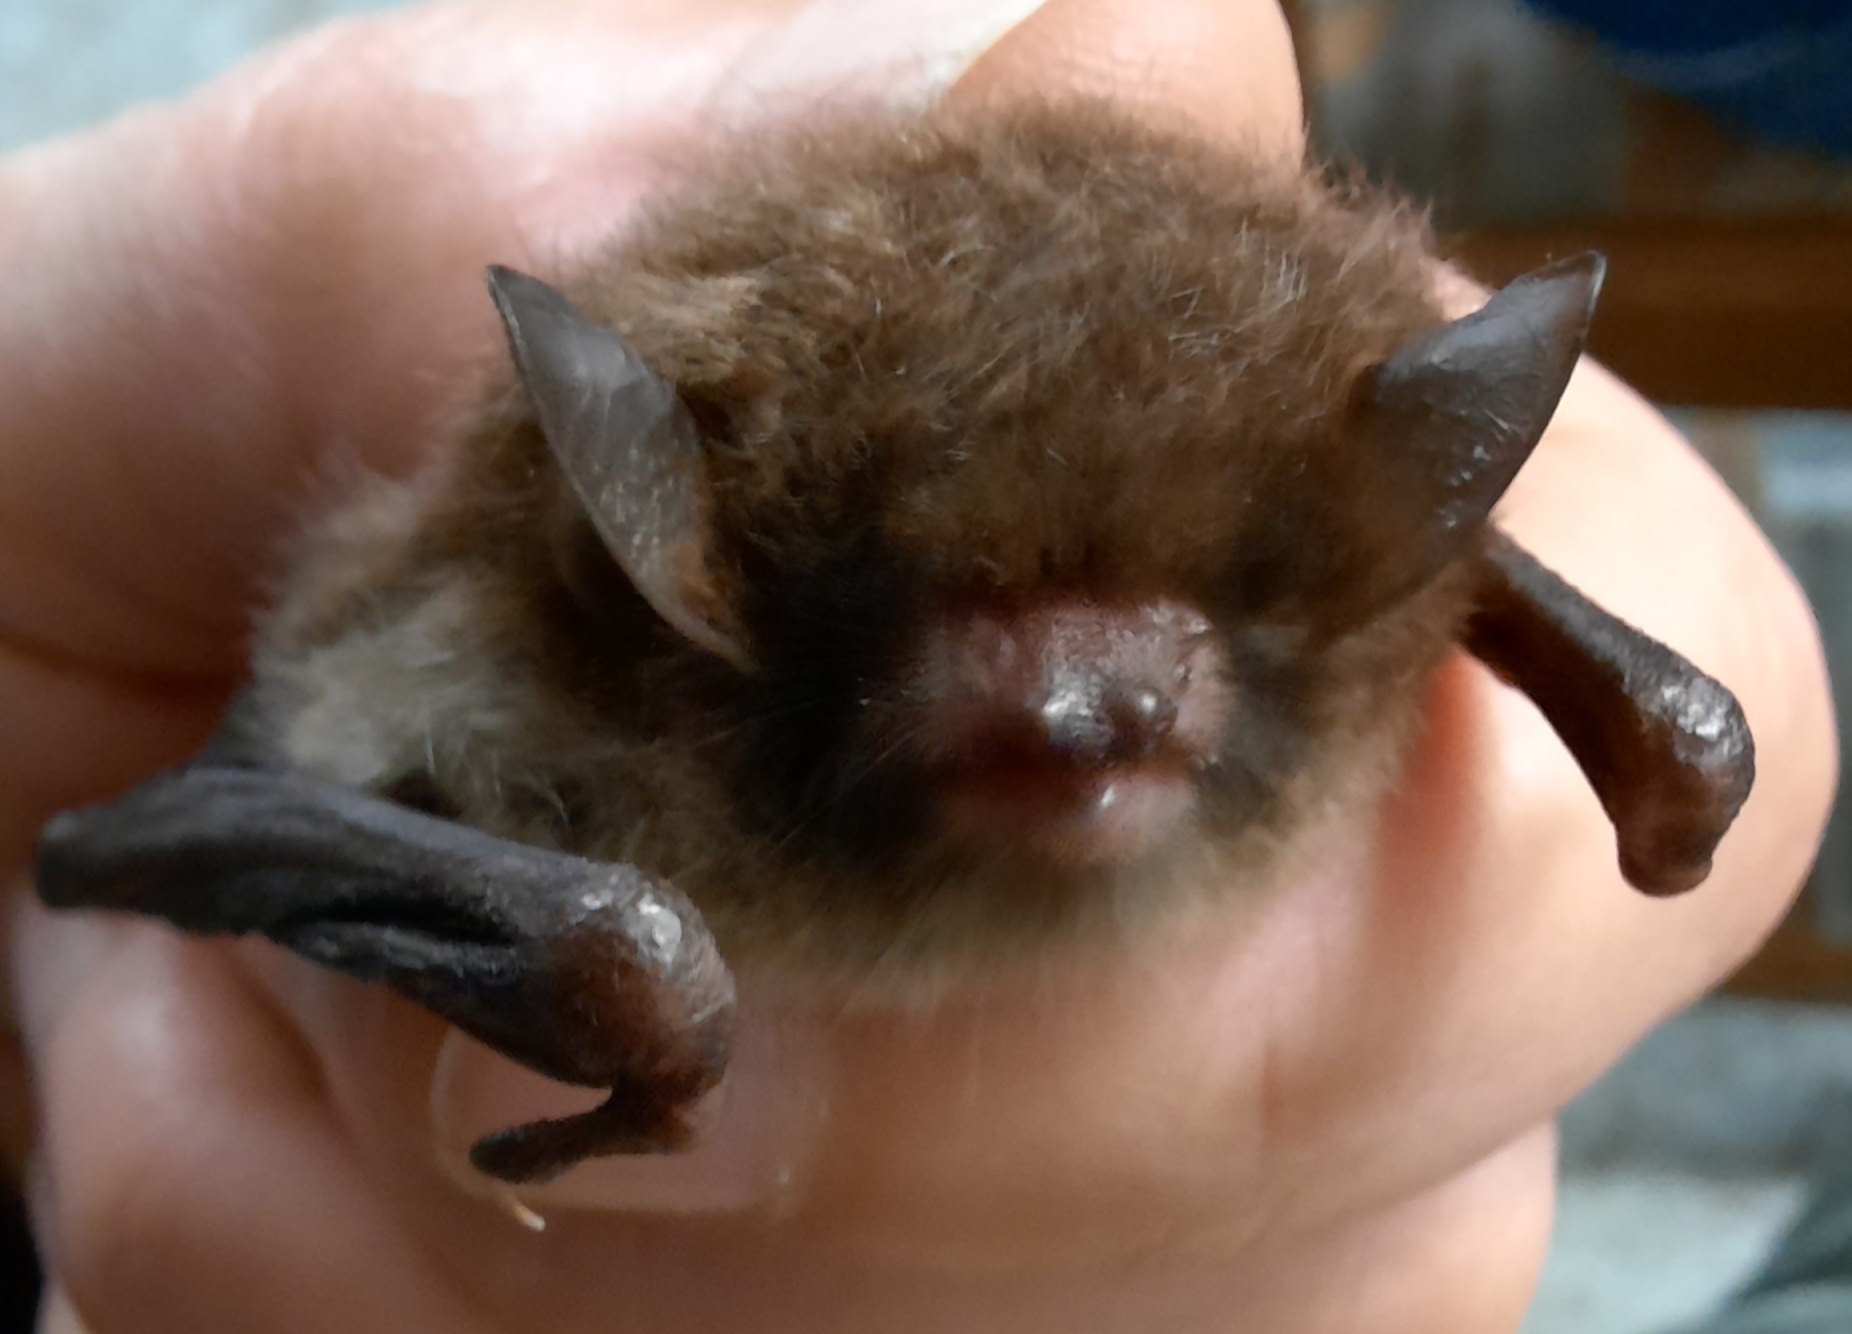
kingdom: Animalia
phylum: Chordata
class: Mammalia
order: Chiroptera
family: Vespertilionidae
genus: Myotis
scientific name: Myotis daubentonii
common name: Daubenton's myotis
